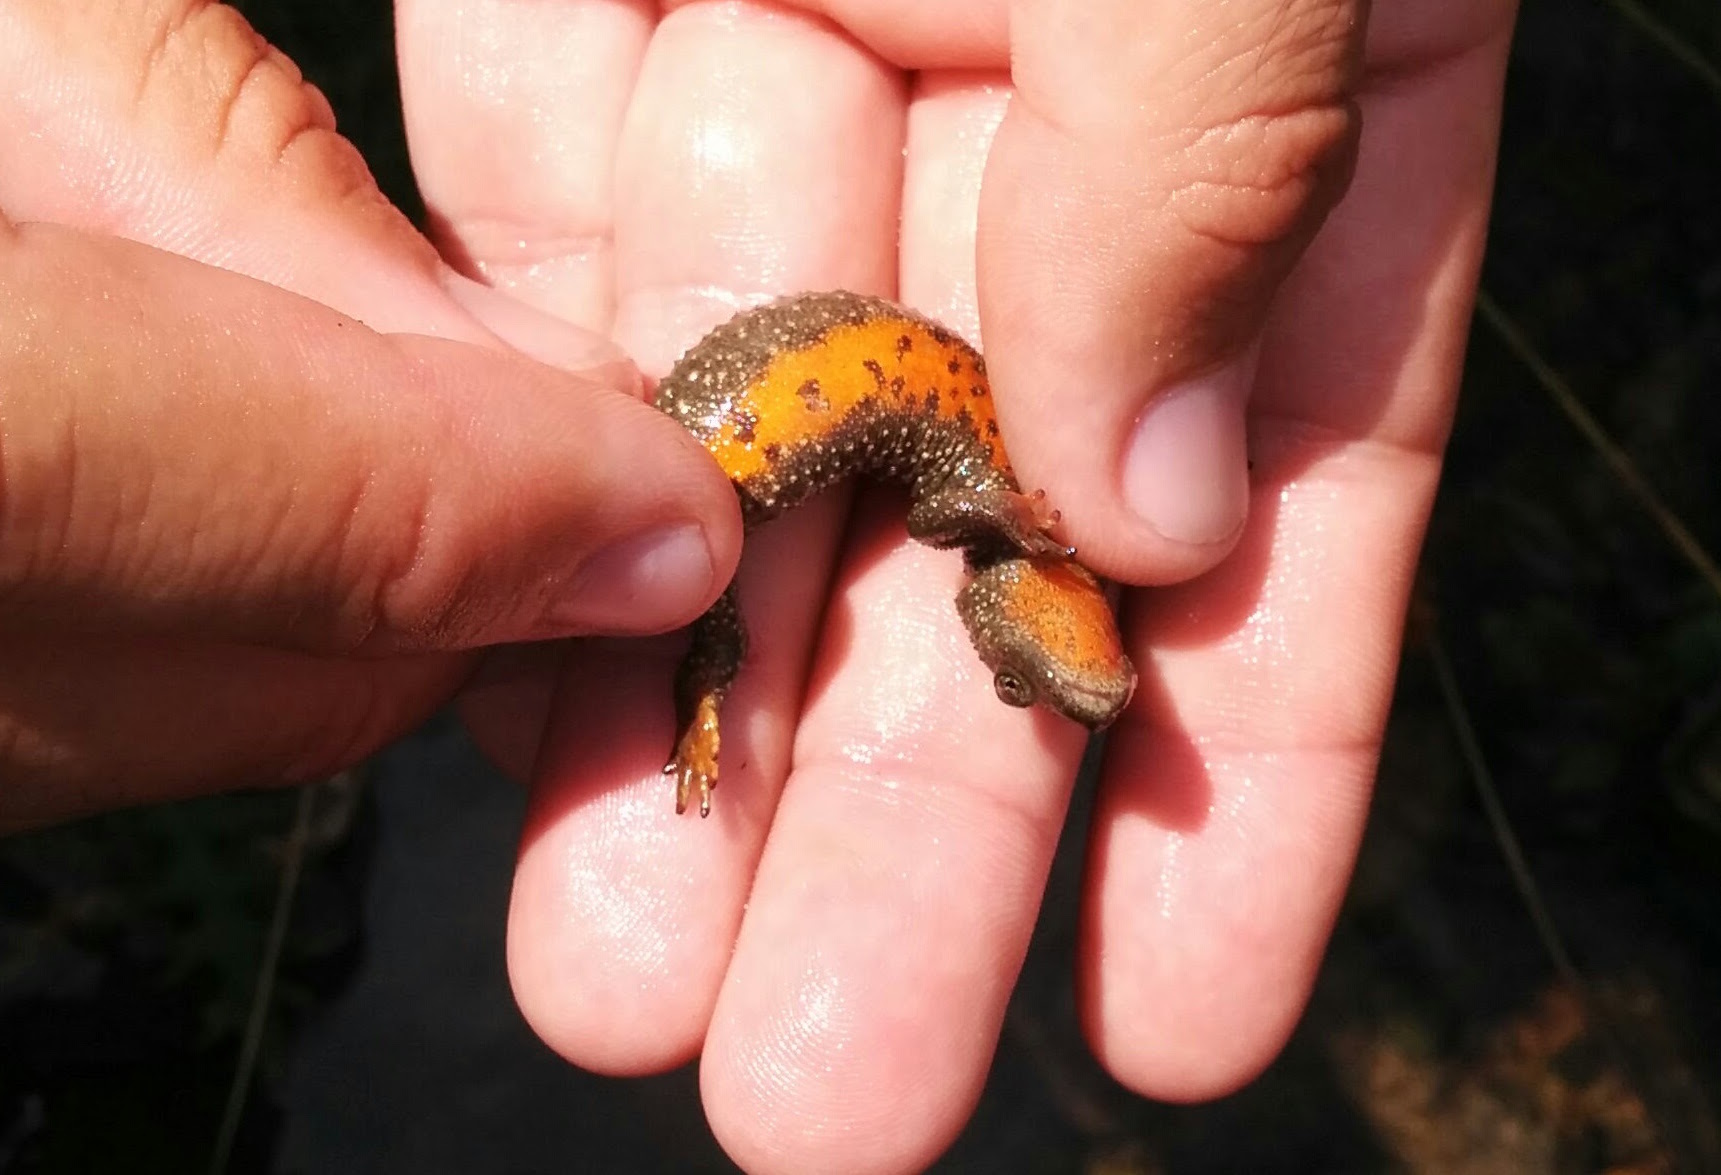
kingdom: Animalia
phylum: Chordata
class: Amphibia
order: Caudata
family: Salamandridae
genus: Calotriton
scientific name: Calotriton asper
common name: Pyrenean brook salamander
